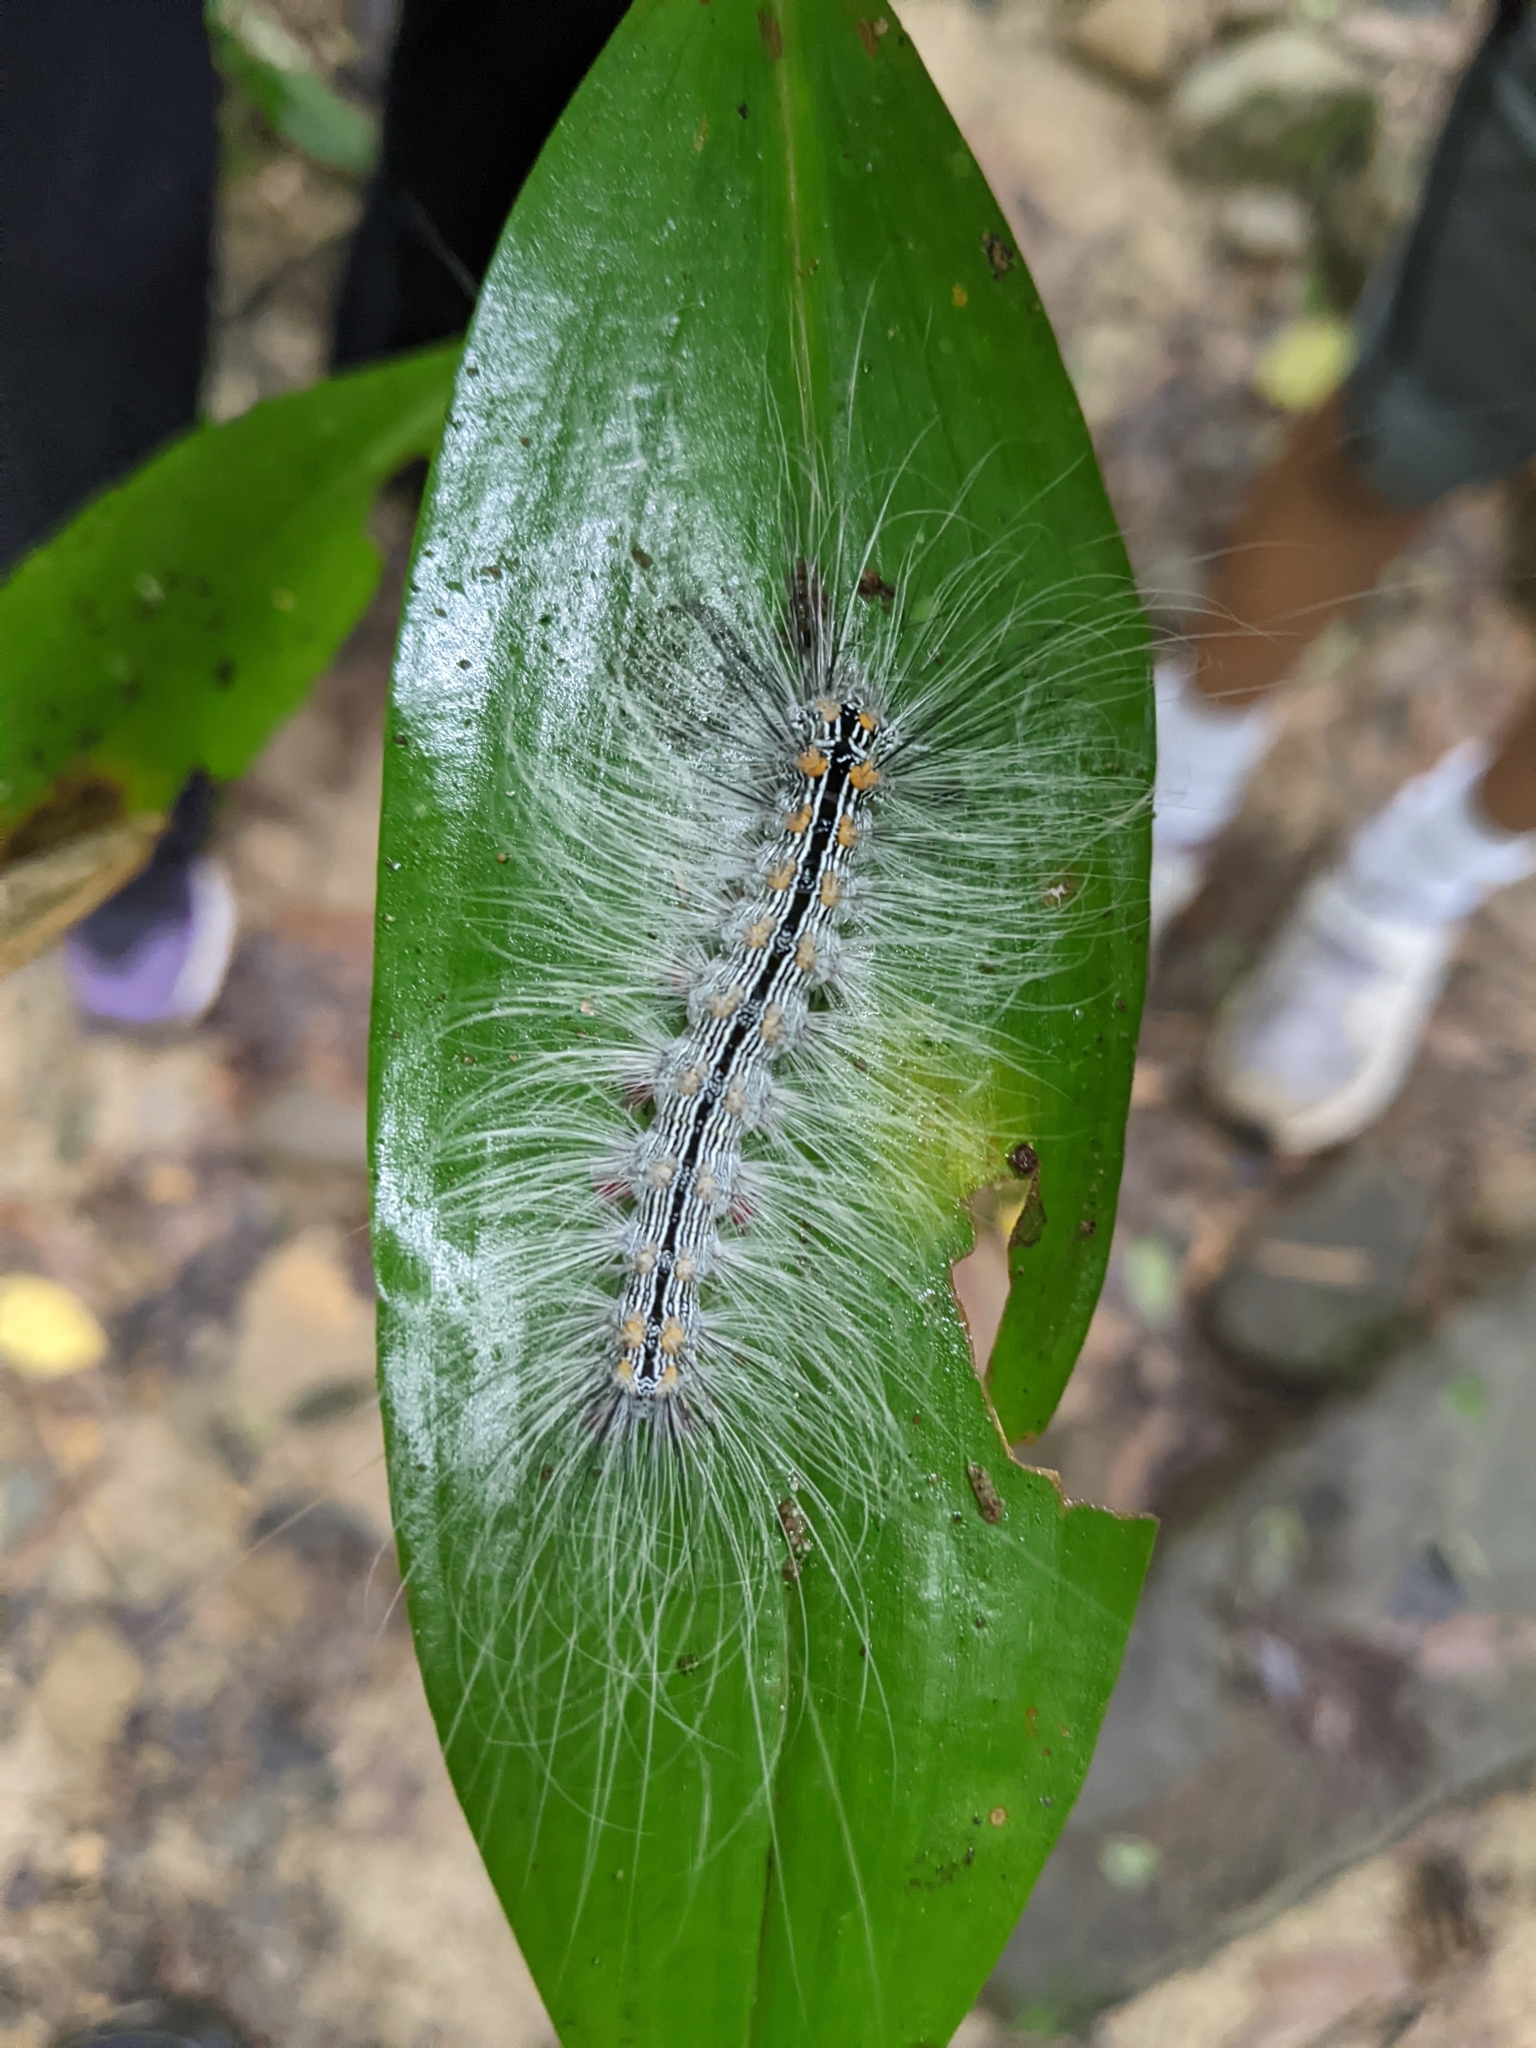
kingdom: Animalia
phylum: Arthropoda
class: Insecta
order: Lepidoptera
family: Erebidae
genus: Chrysaeglia
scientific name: Chrysaeglia magnifica
